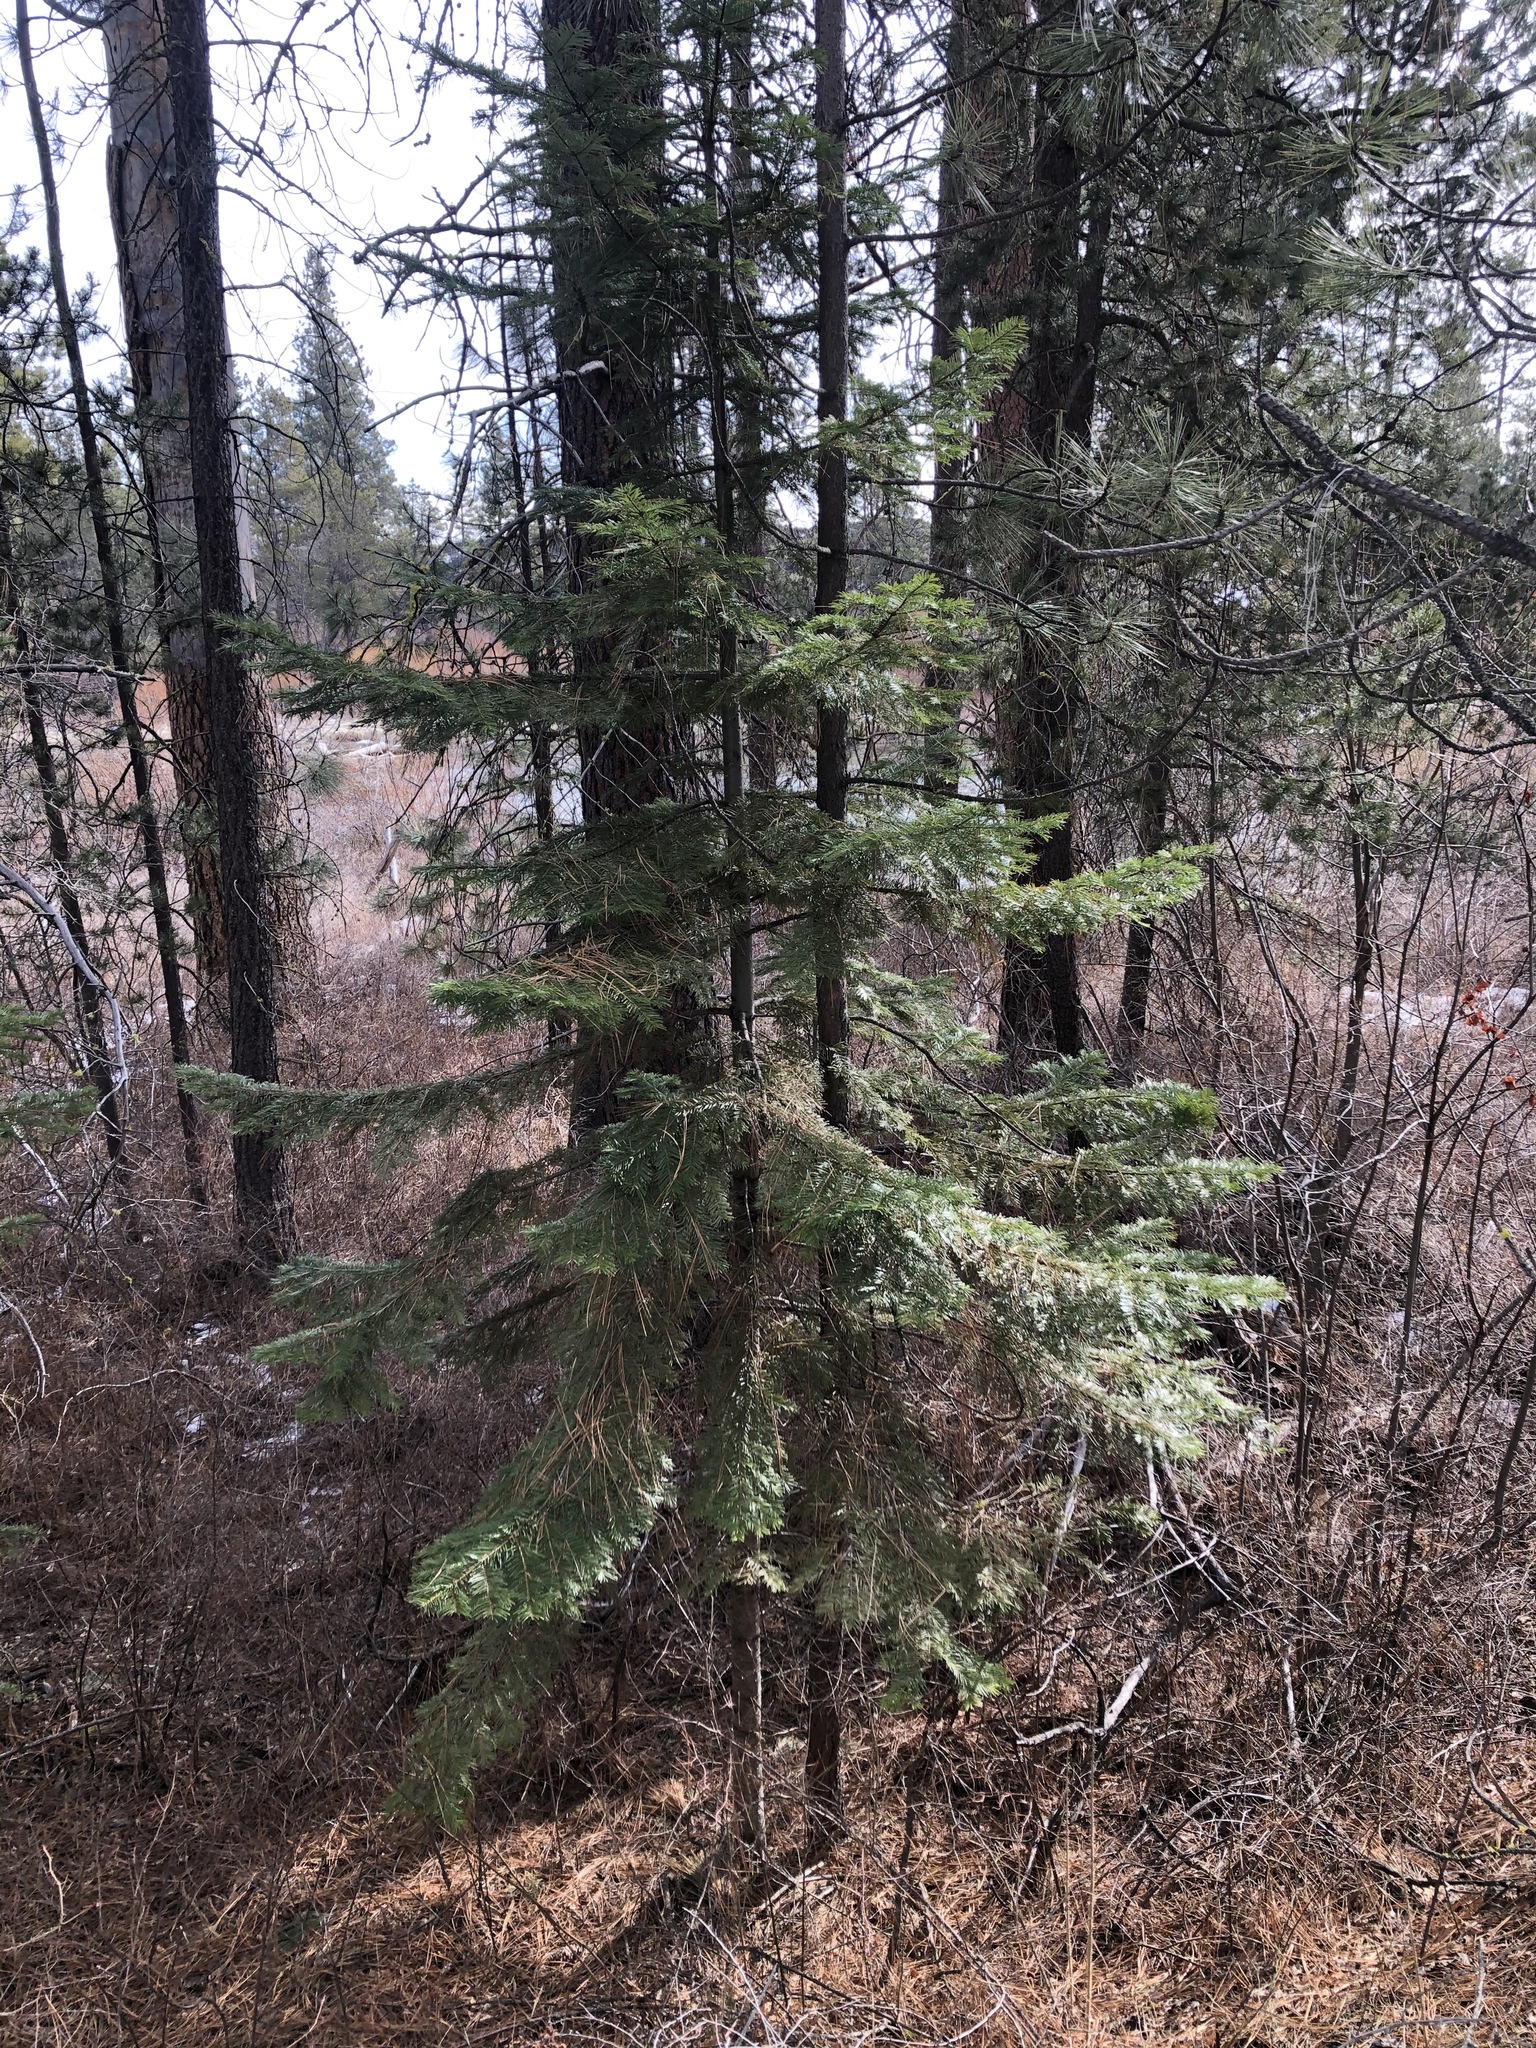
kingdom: Plantae
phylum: Tracheophyta
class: Pinopsida
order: Pinales
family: Pinaceae
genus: Abies
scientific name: Abies grandis
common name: Giant fir
